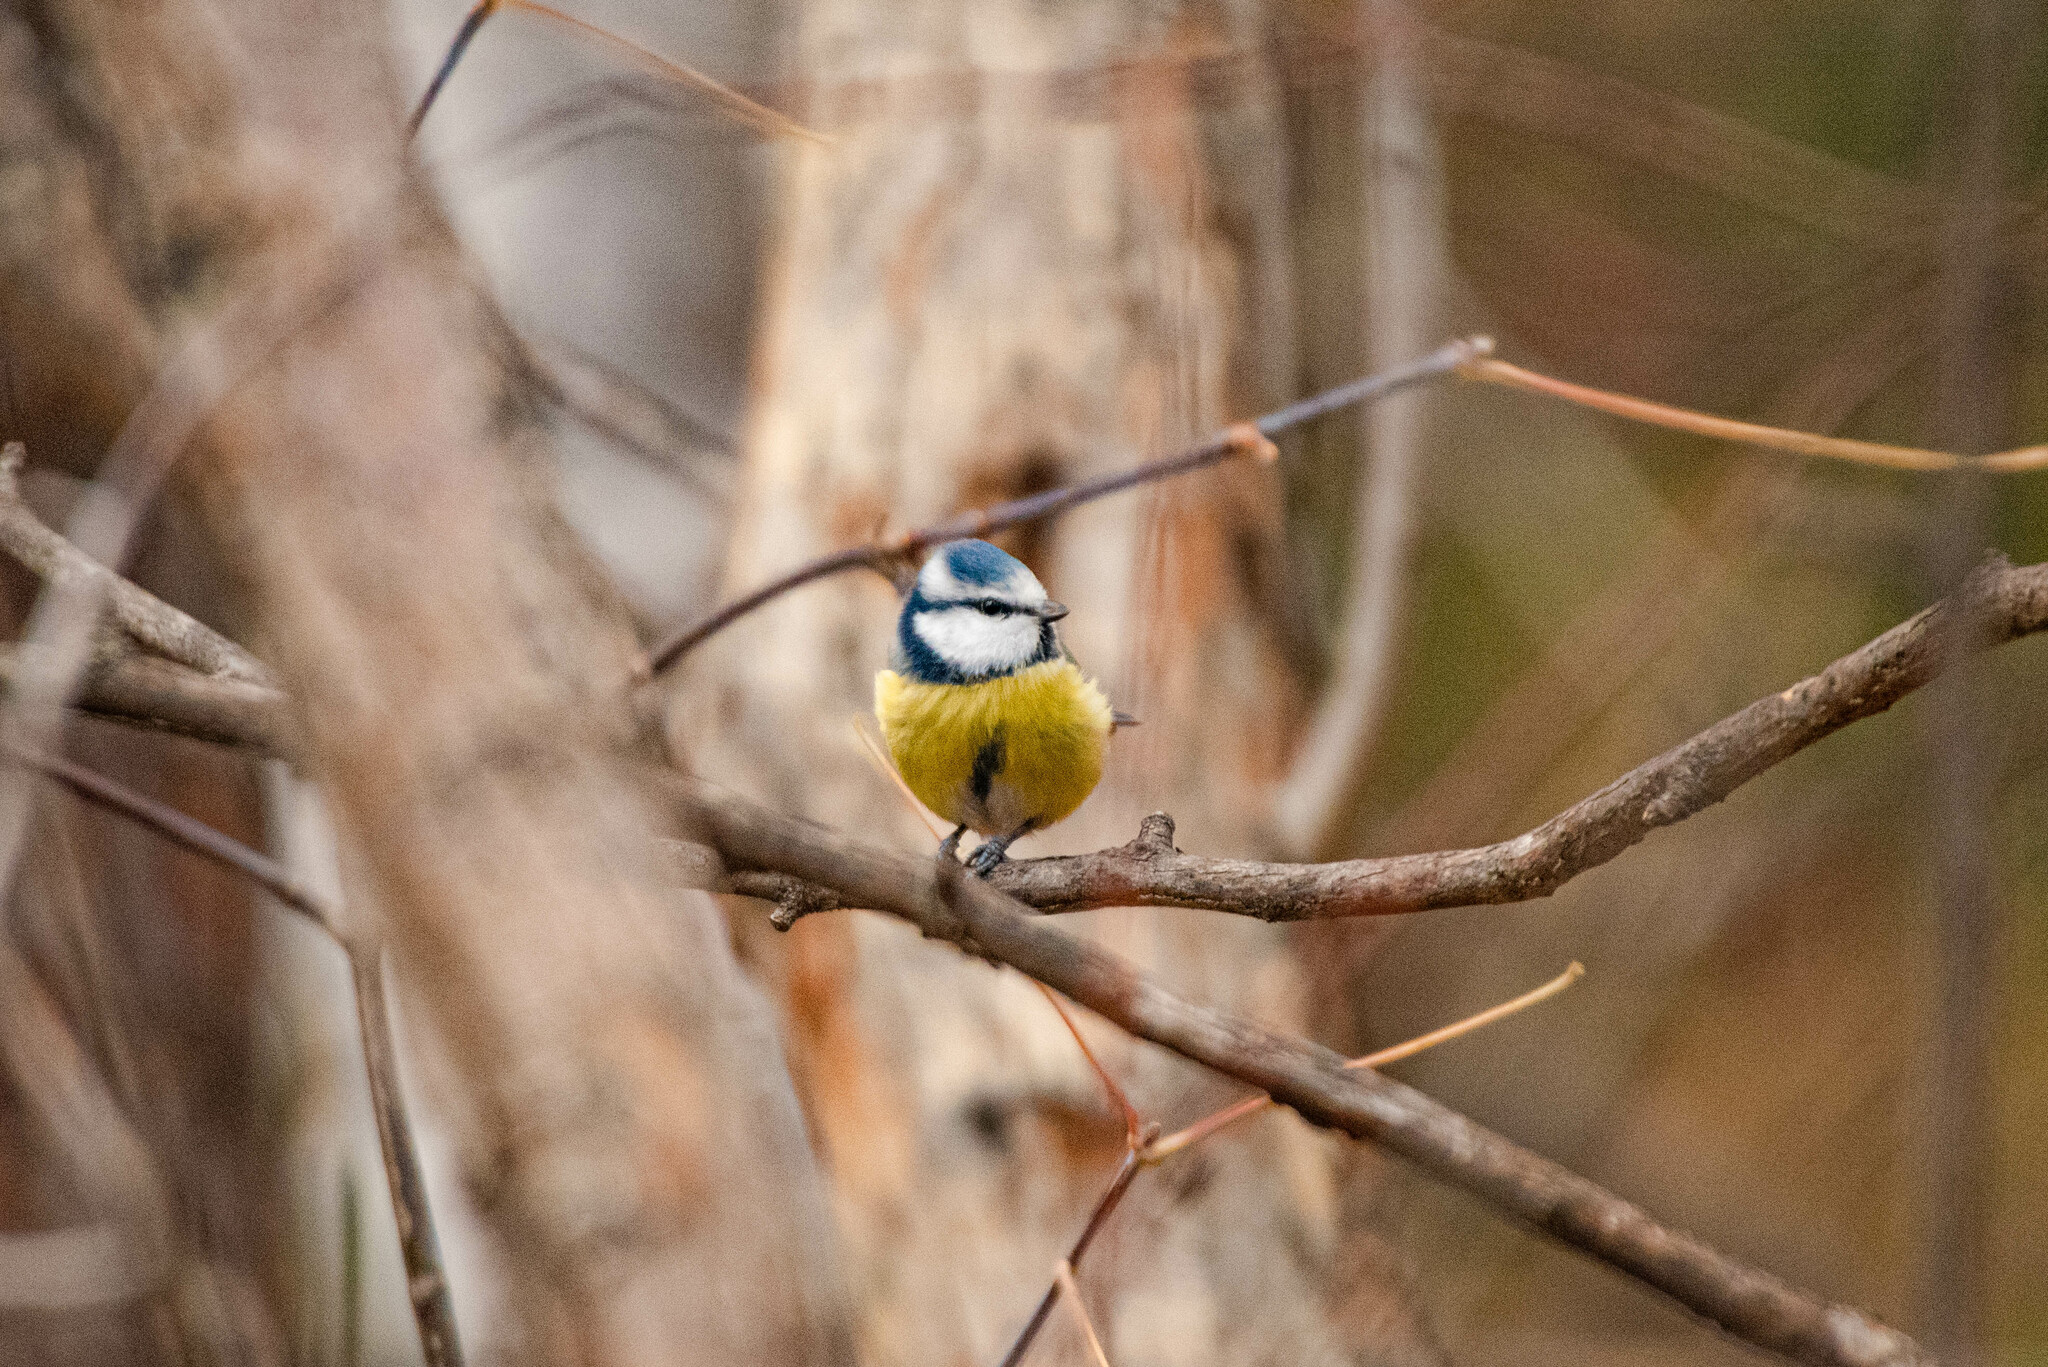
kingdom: Animalia
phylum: Chordata
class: Aves
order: Passeriformes
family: Paridae
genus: Cyanistes
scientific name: Cyanistes caeruleus
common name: Eurasian blue tit
